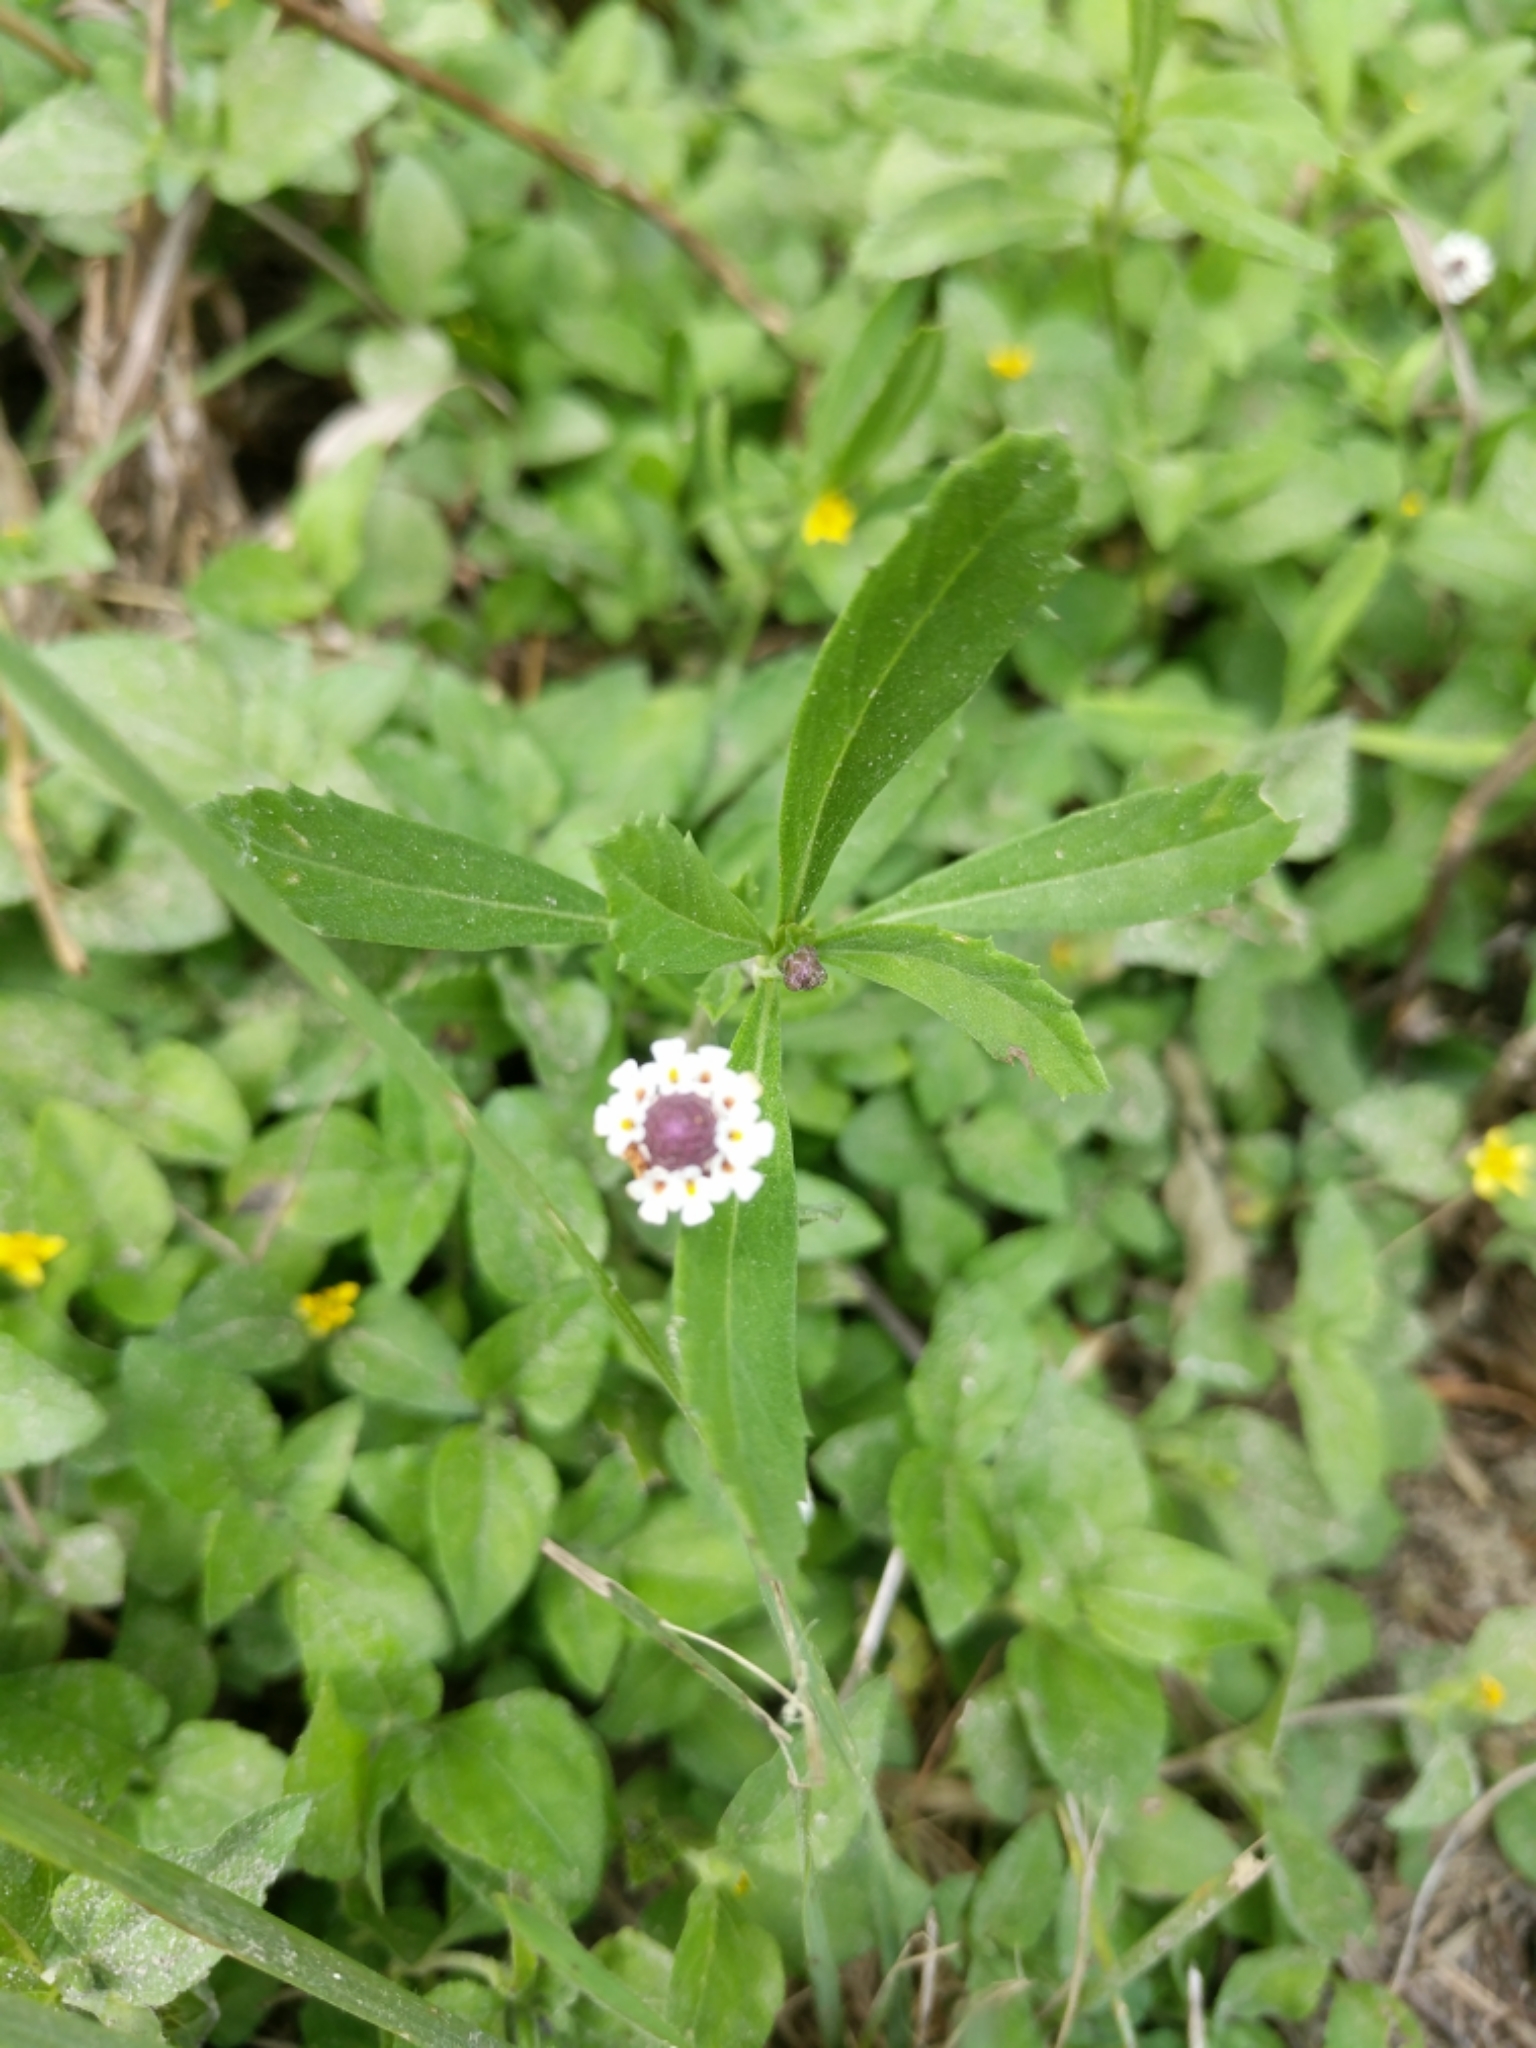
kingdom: Plantae
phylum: Tracheophyta
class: Magnoliopsida
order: Lamiales
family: Verbenaceae
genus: Phyla
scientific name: Phyla nodiflora
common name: Frogfruit
